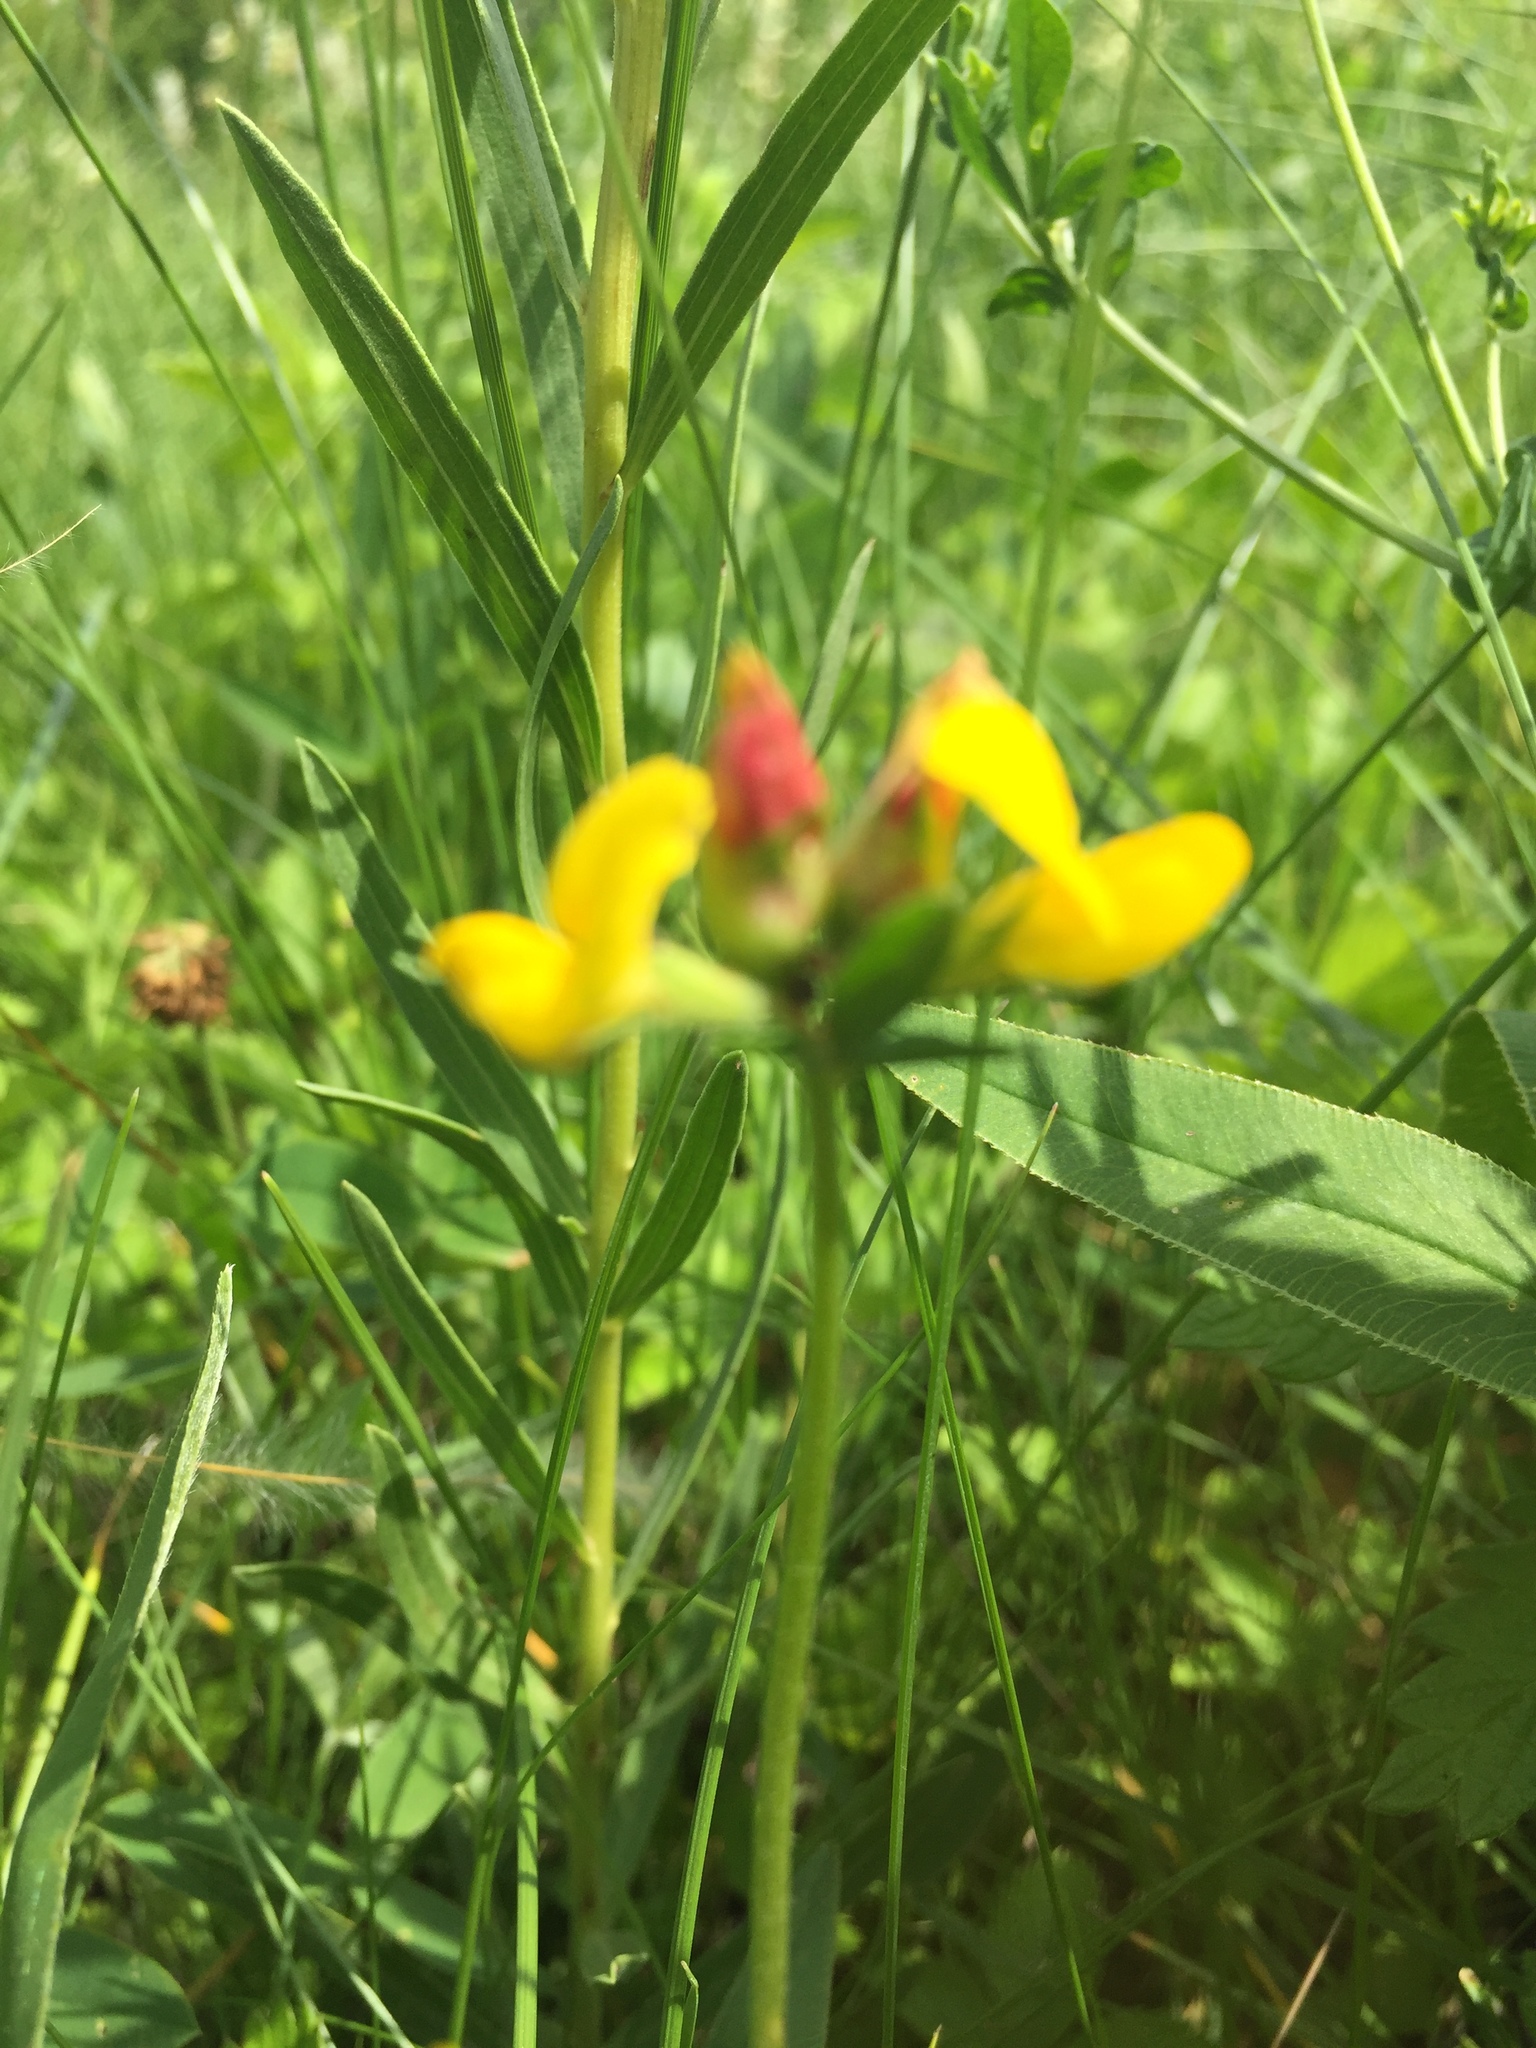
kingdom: Plantae
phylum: Tracheophyta
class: Magnoliopsida
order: Fabales
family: Fabaceae
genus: Lotus
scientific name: Lotus corniculatus
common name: Common bird's-foot-trefoil
